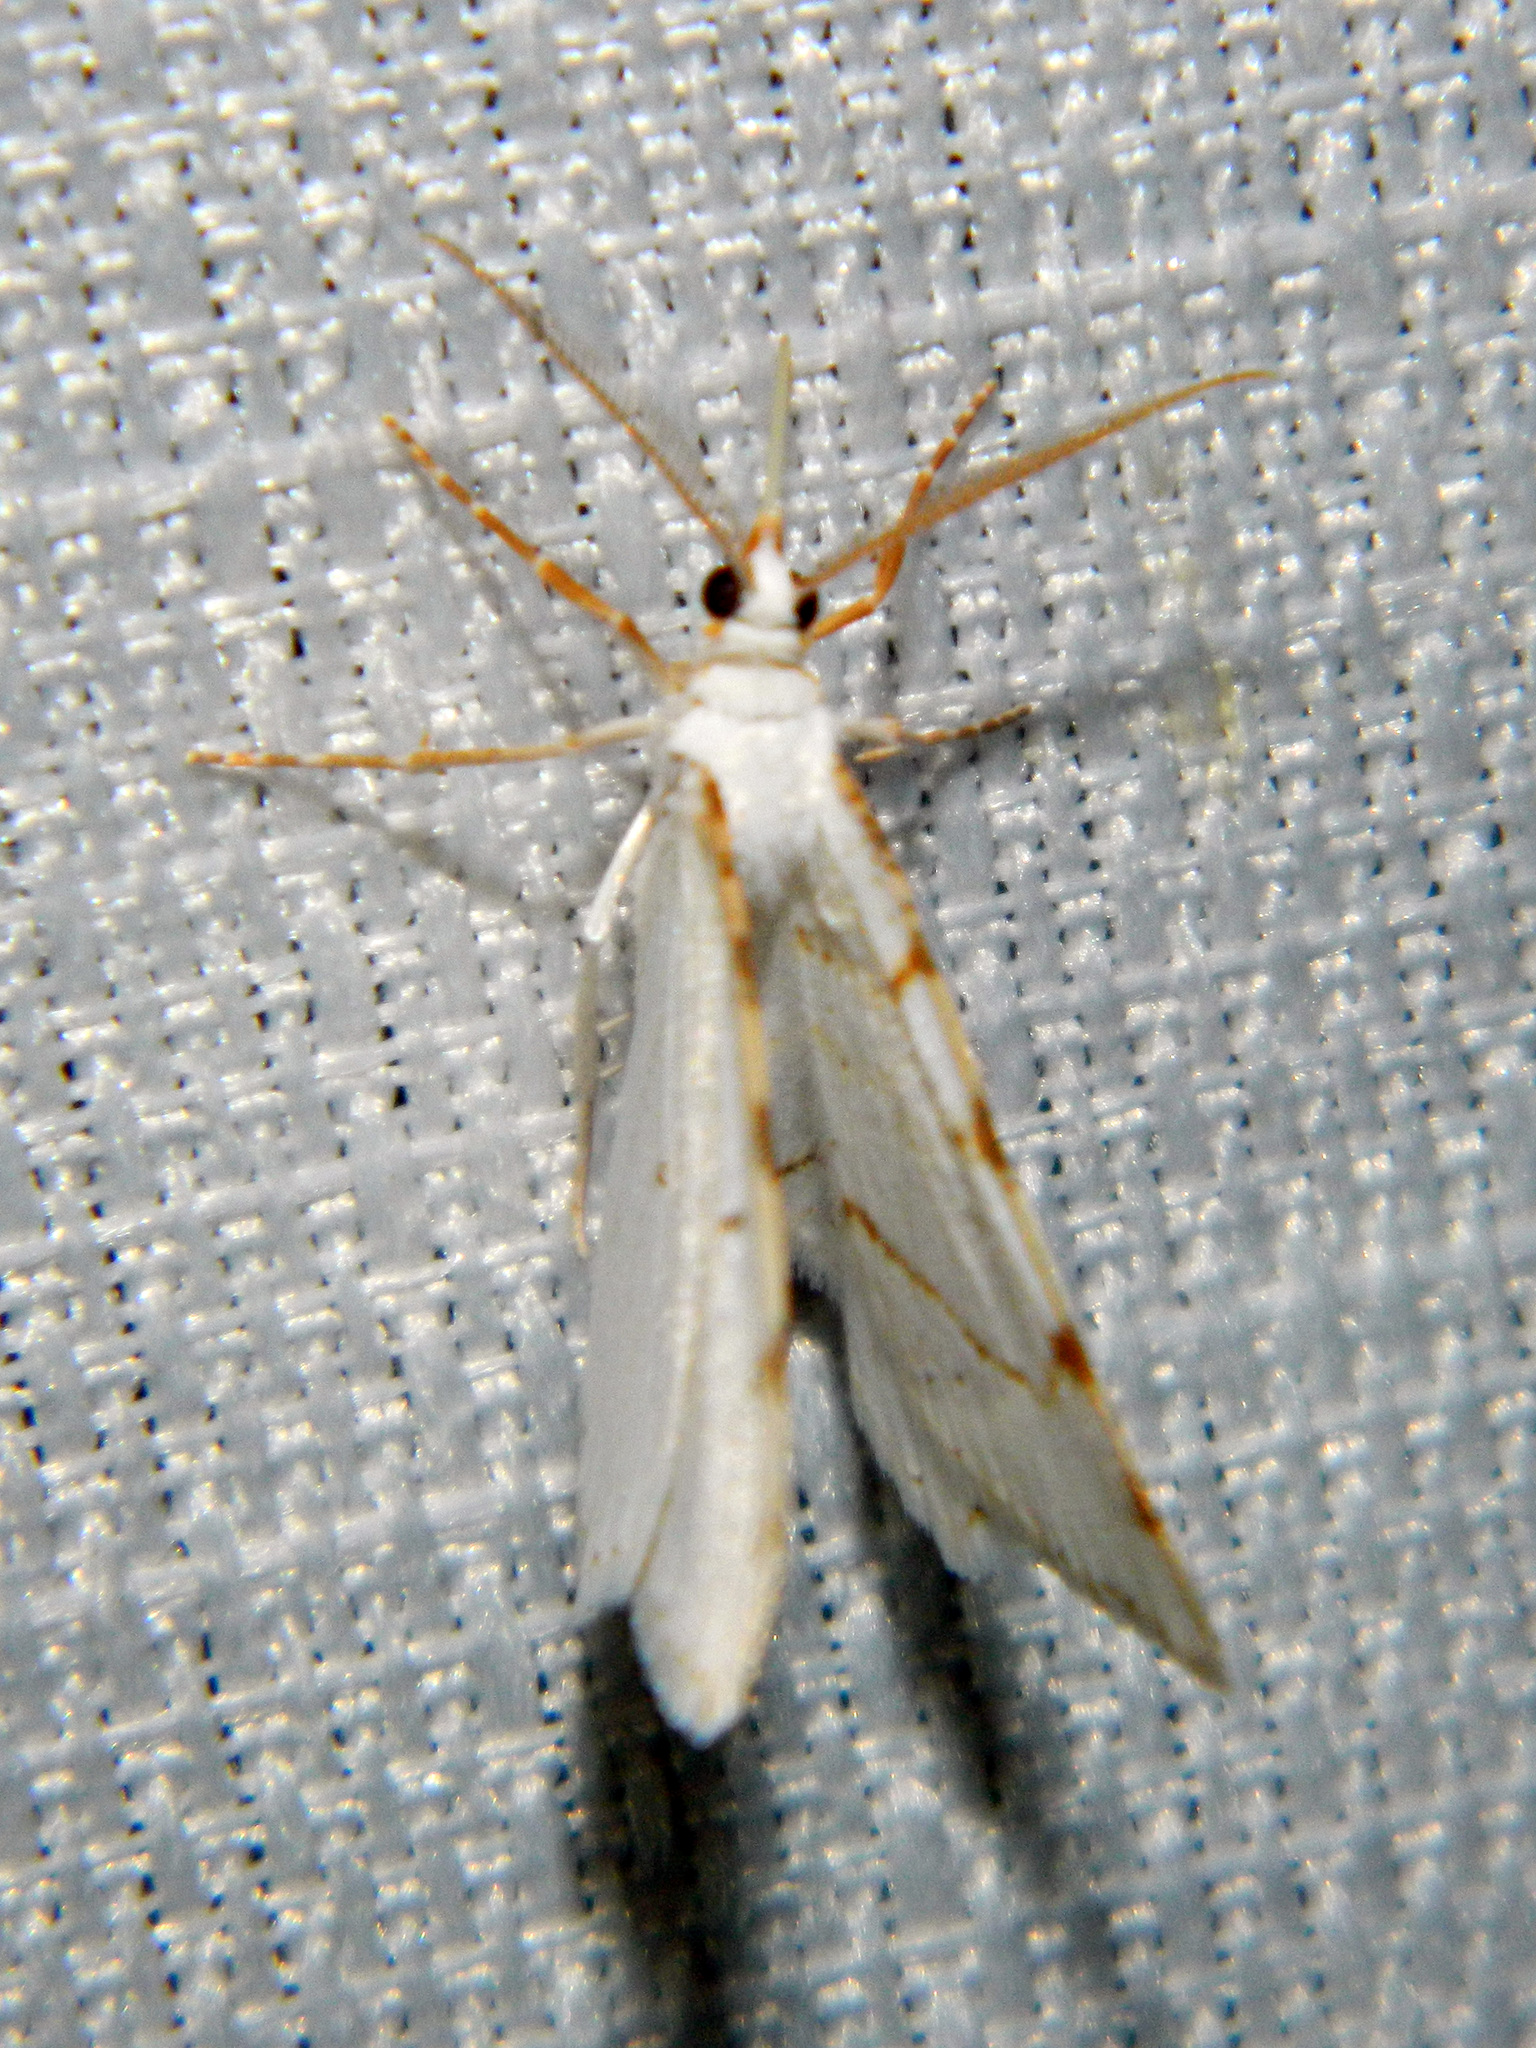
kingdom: Animalia
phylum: Arthropoda
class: Insecta
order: Lepidoptera
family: Geometridae
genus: Macaria
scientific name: Macaria pustularia
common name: Lesser maple spanworm moth
